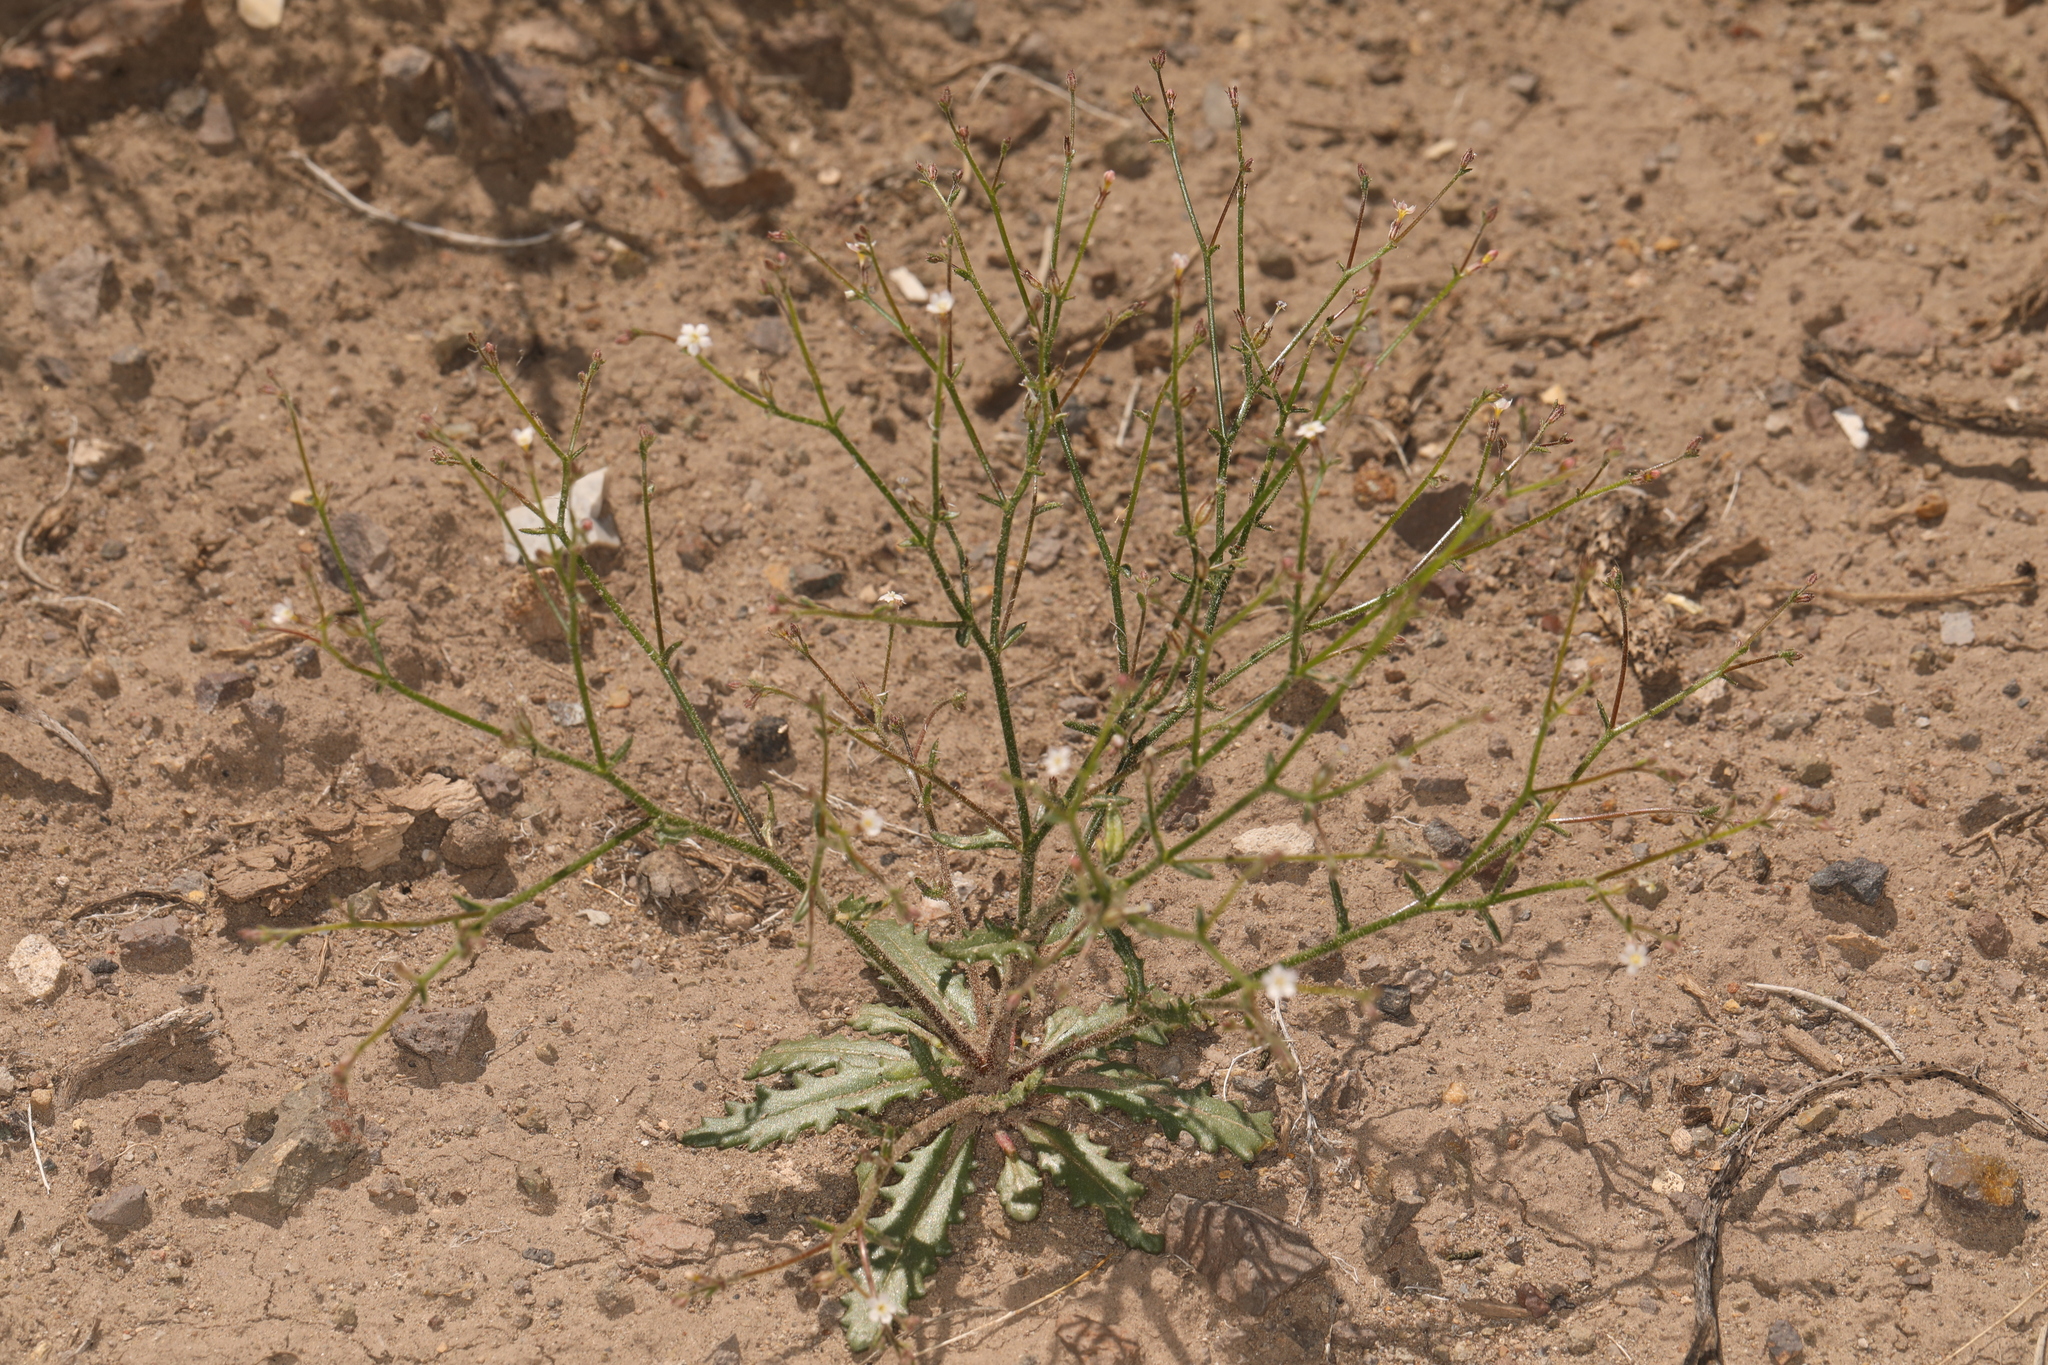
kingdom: Plantae
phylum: Tracheophyta
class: Magnoliopsida
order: Ericales
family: Polemoniaceae
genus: Aliciella
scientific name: Aliciella leptomeria
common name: Sand gilia
